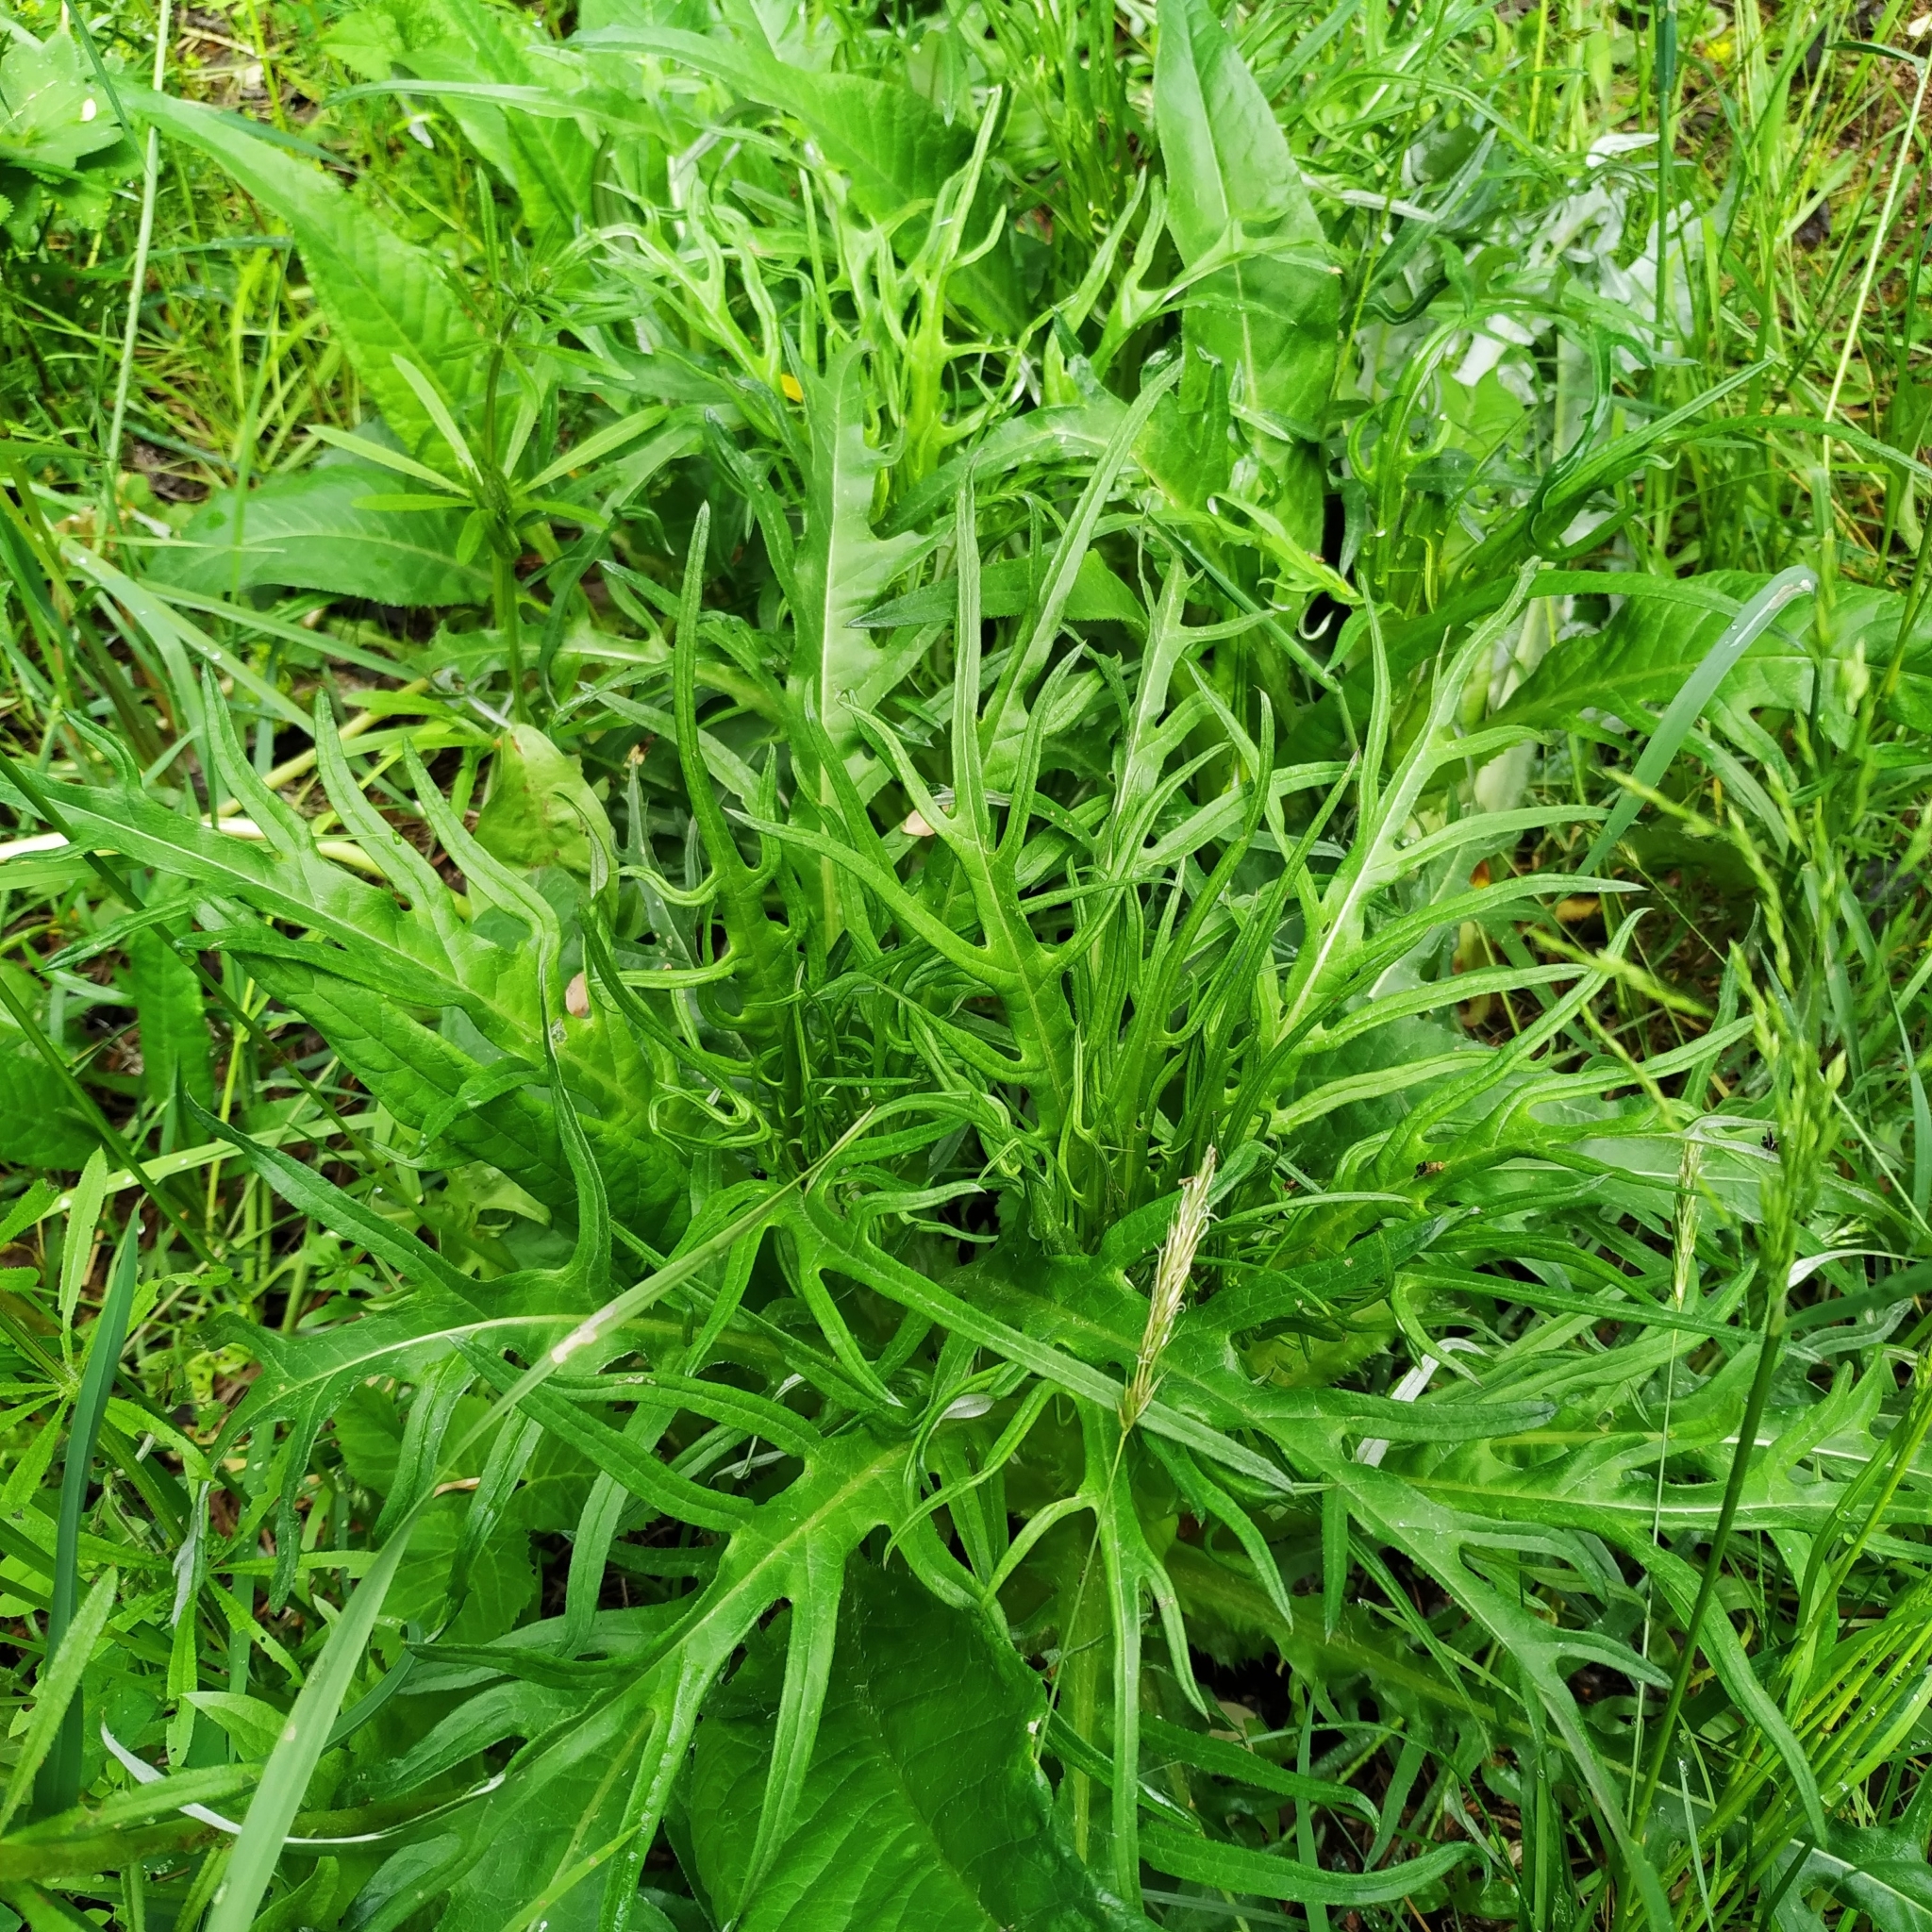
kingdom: Plantae
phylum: Tracheophyta
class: Magnoliopsida
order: Asterales
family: Asteraceae
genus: Cirsium
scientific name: Cirsium heterophyllum
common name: Melancholy thistle
